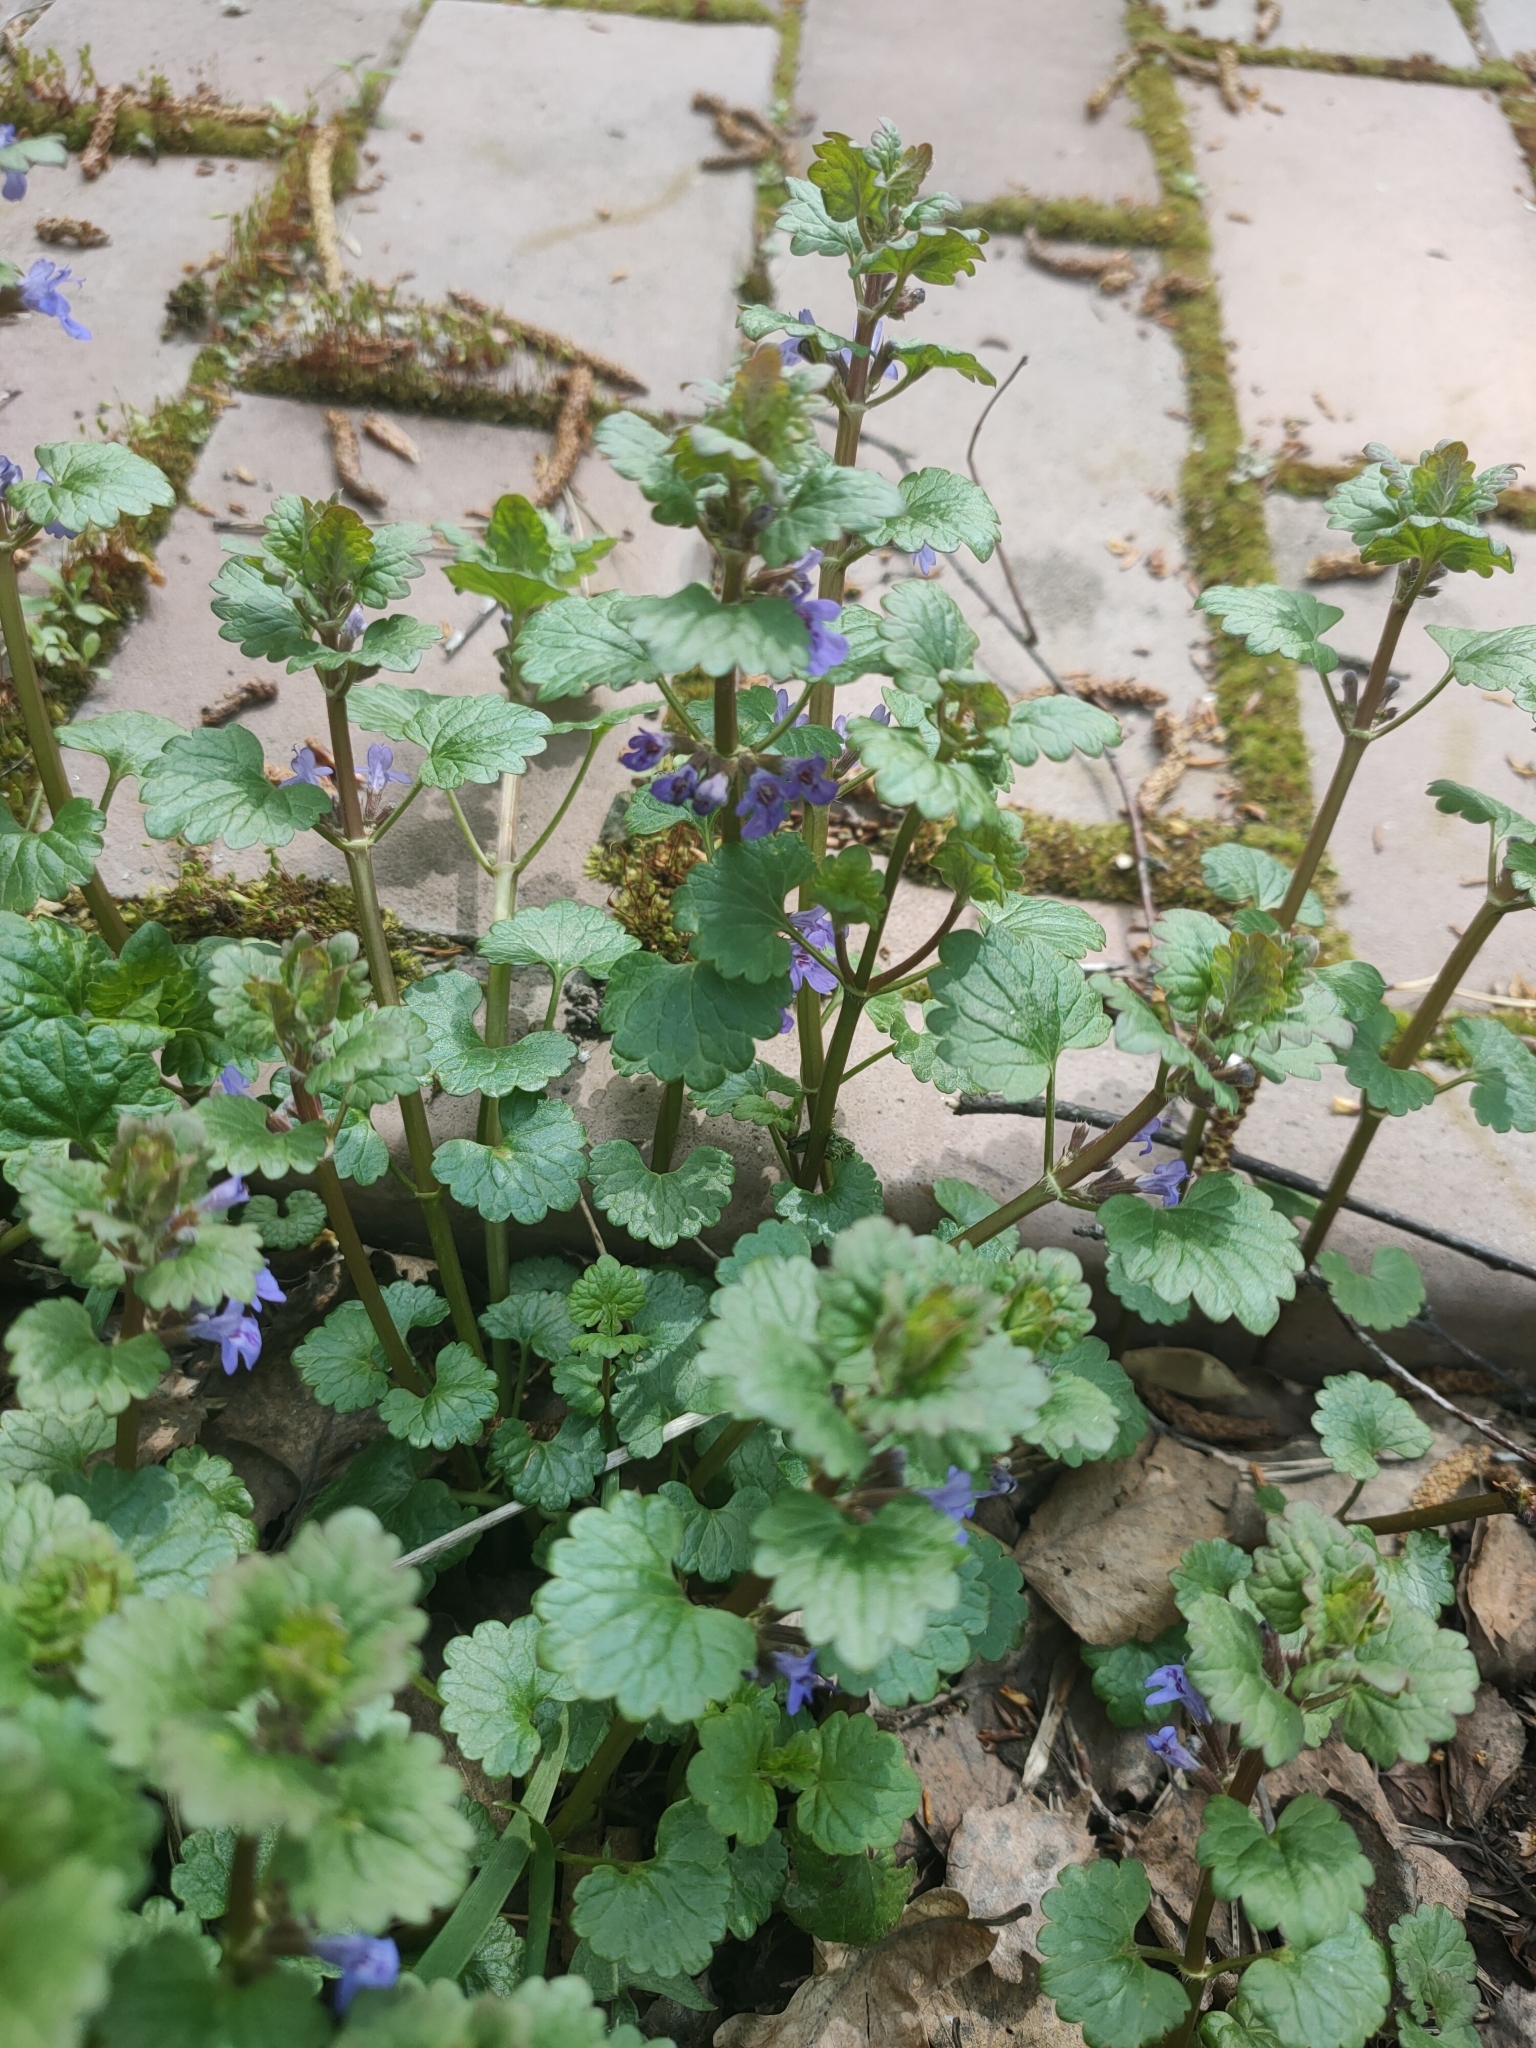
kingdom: Plantae
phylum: Tracheophyta
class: Magnoliopsida
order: Lamiales
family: Lamiaceae
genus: Glechoma
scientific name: Glechoma hederacea
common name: Ground ivy
